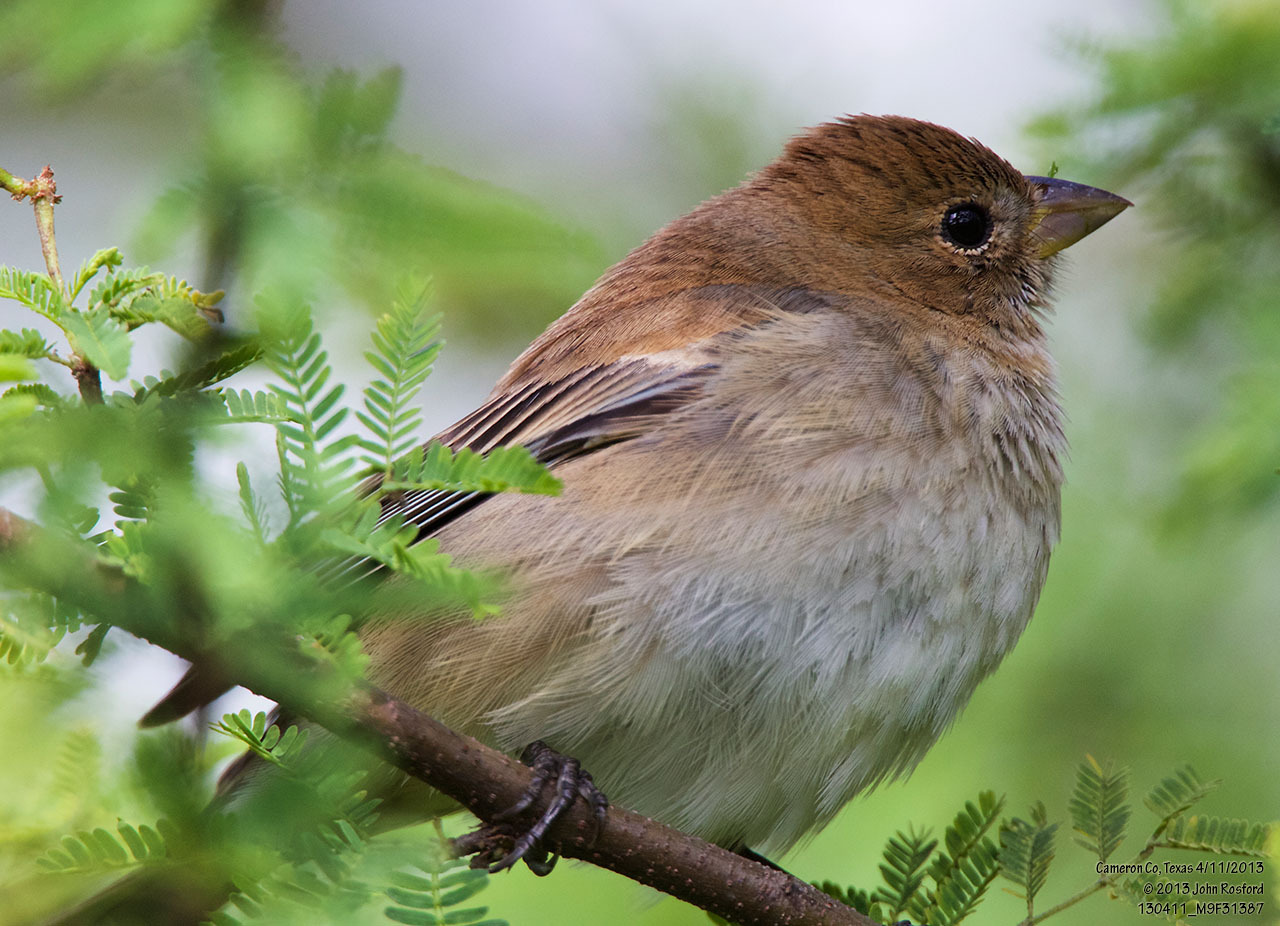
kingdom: Animalia
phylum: Chordata
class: Aves
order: Passeriformes
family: Cardinalidae
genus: Passerina
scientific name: Passerina cyanea
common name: Indigo bunting
